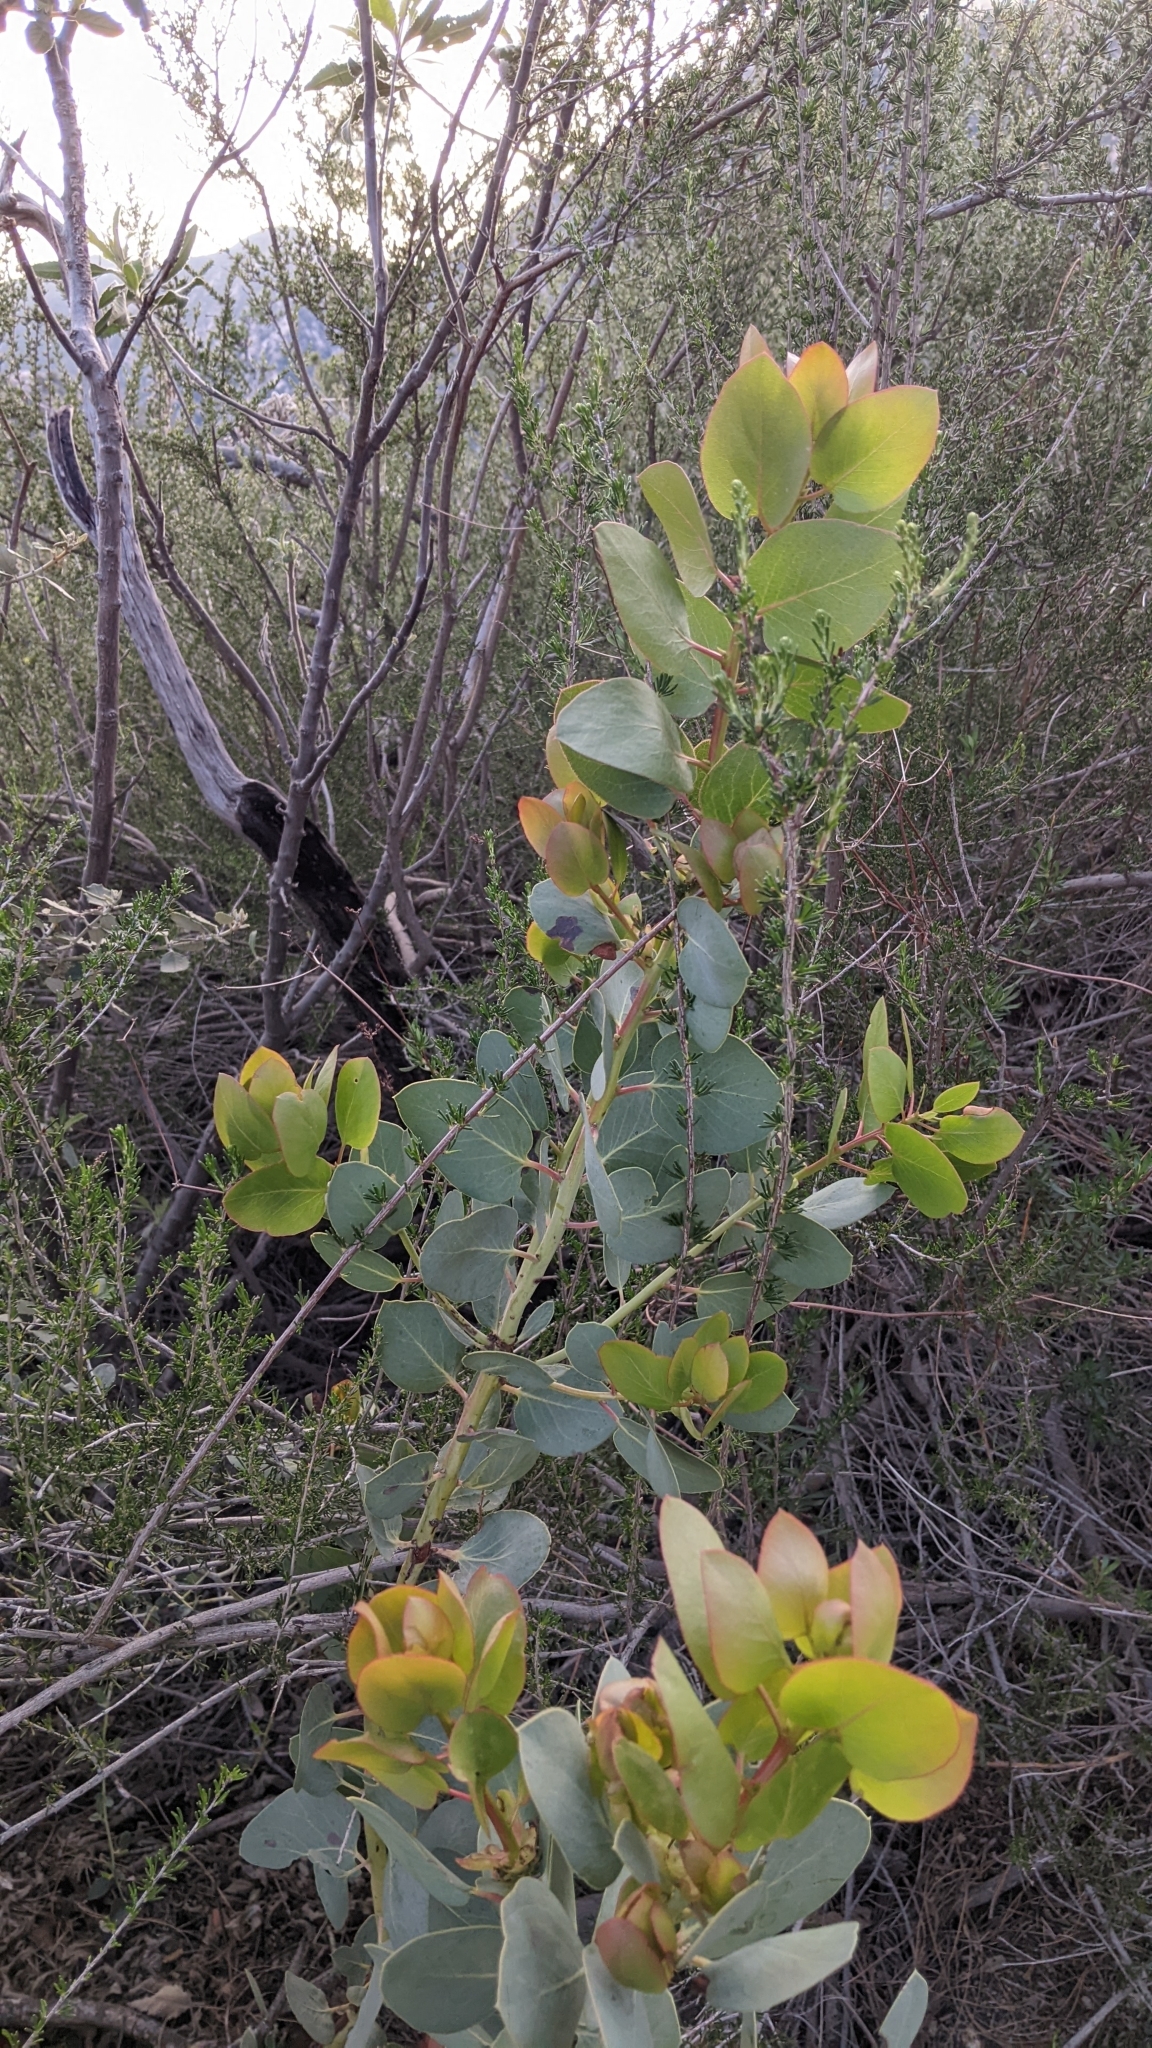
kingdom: Plantae
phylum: Tracheophyta
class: Magnoliopsida
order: Ericales
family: Ericaceae
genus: Arctostaphylos
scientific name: Arctostaphylos glauca
